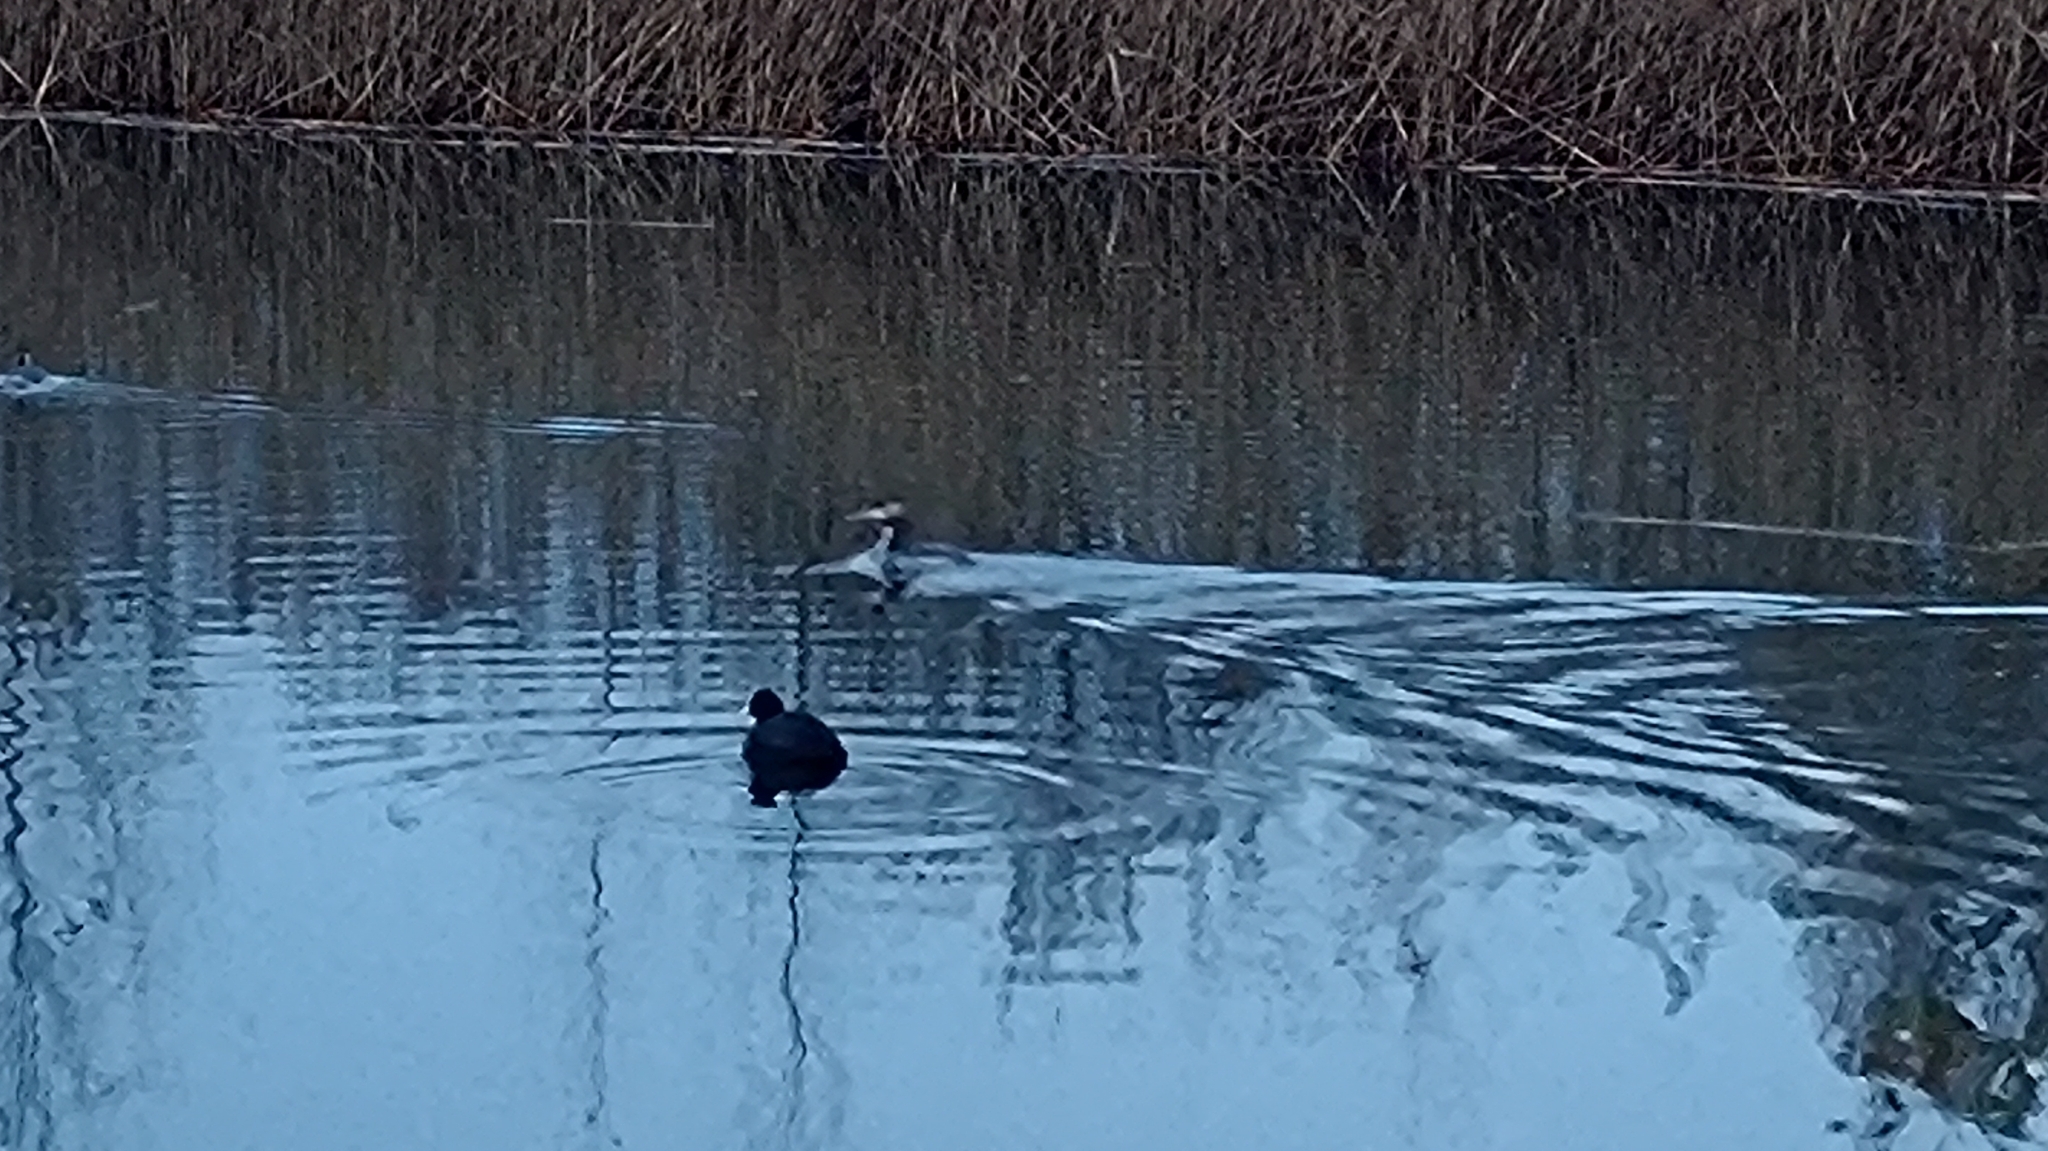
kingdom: Animalia
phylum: Chordata
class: Aves
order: Podicipediformes
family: Podicipedidae
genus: Podiceps
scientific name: Podiceps cristatus
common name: Great crested grebe
